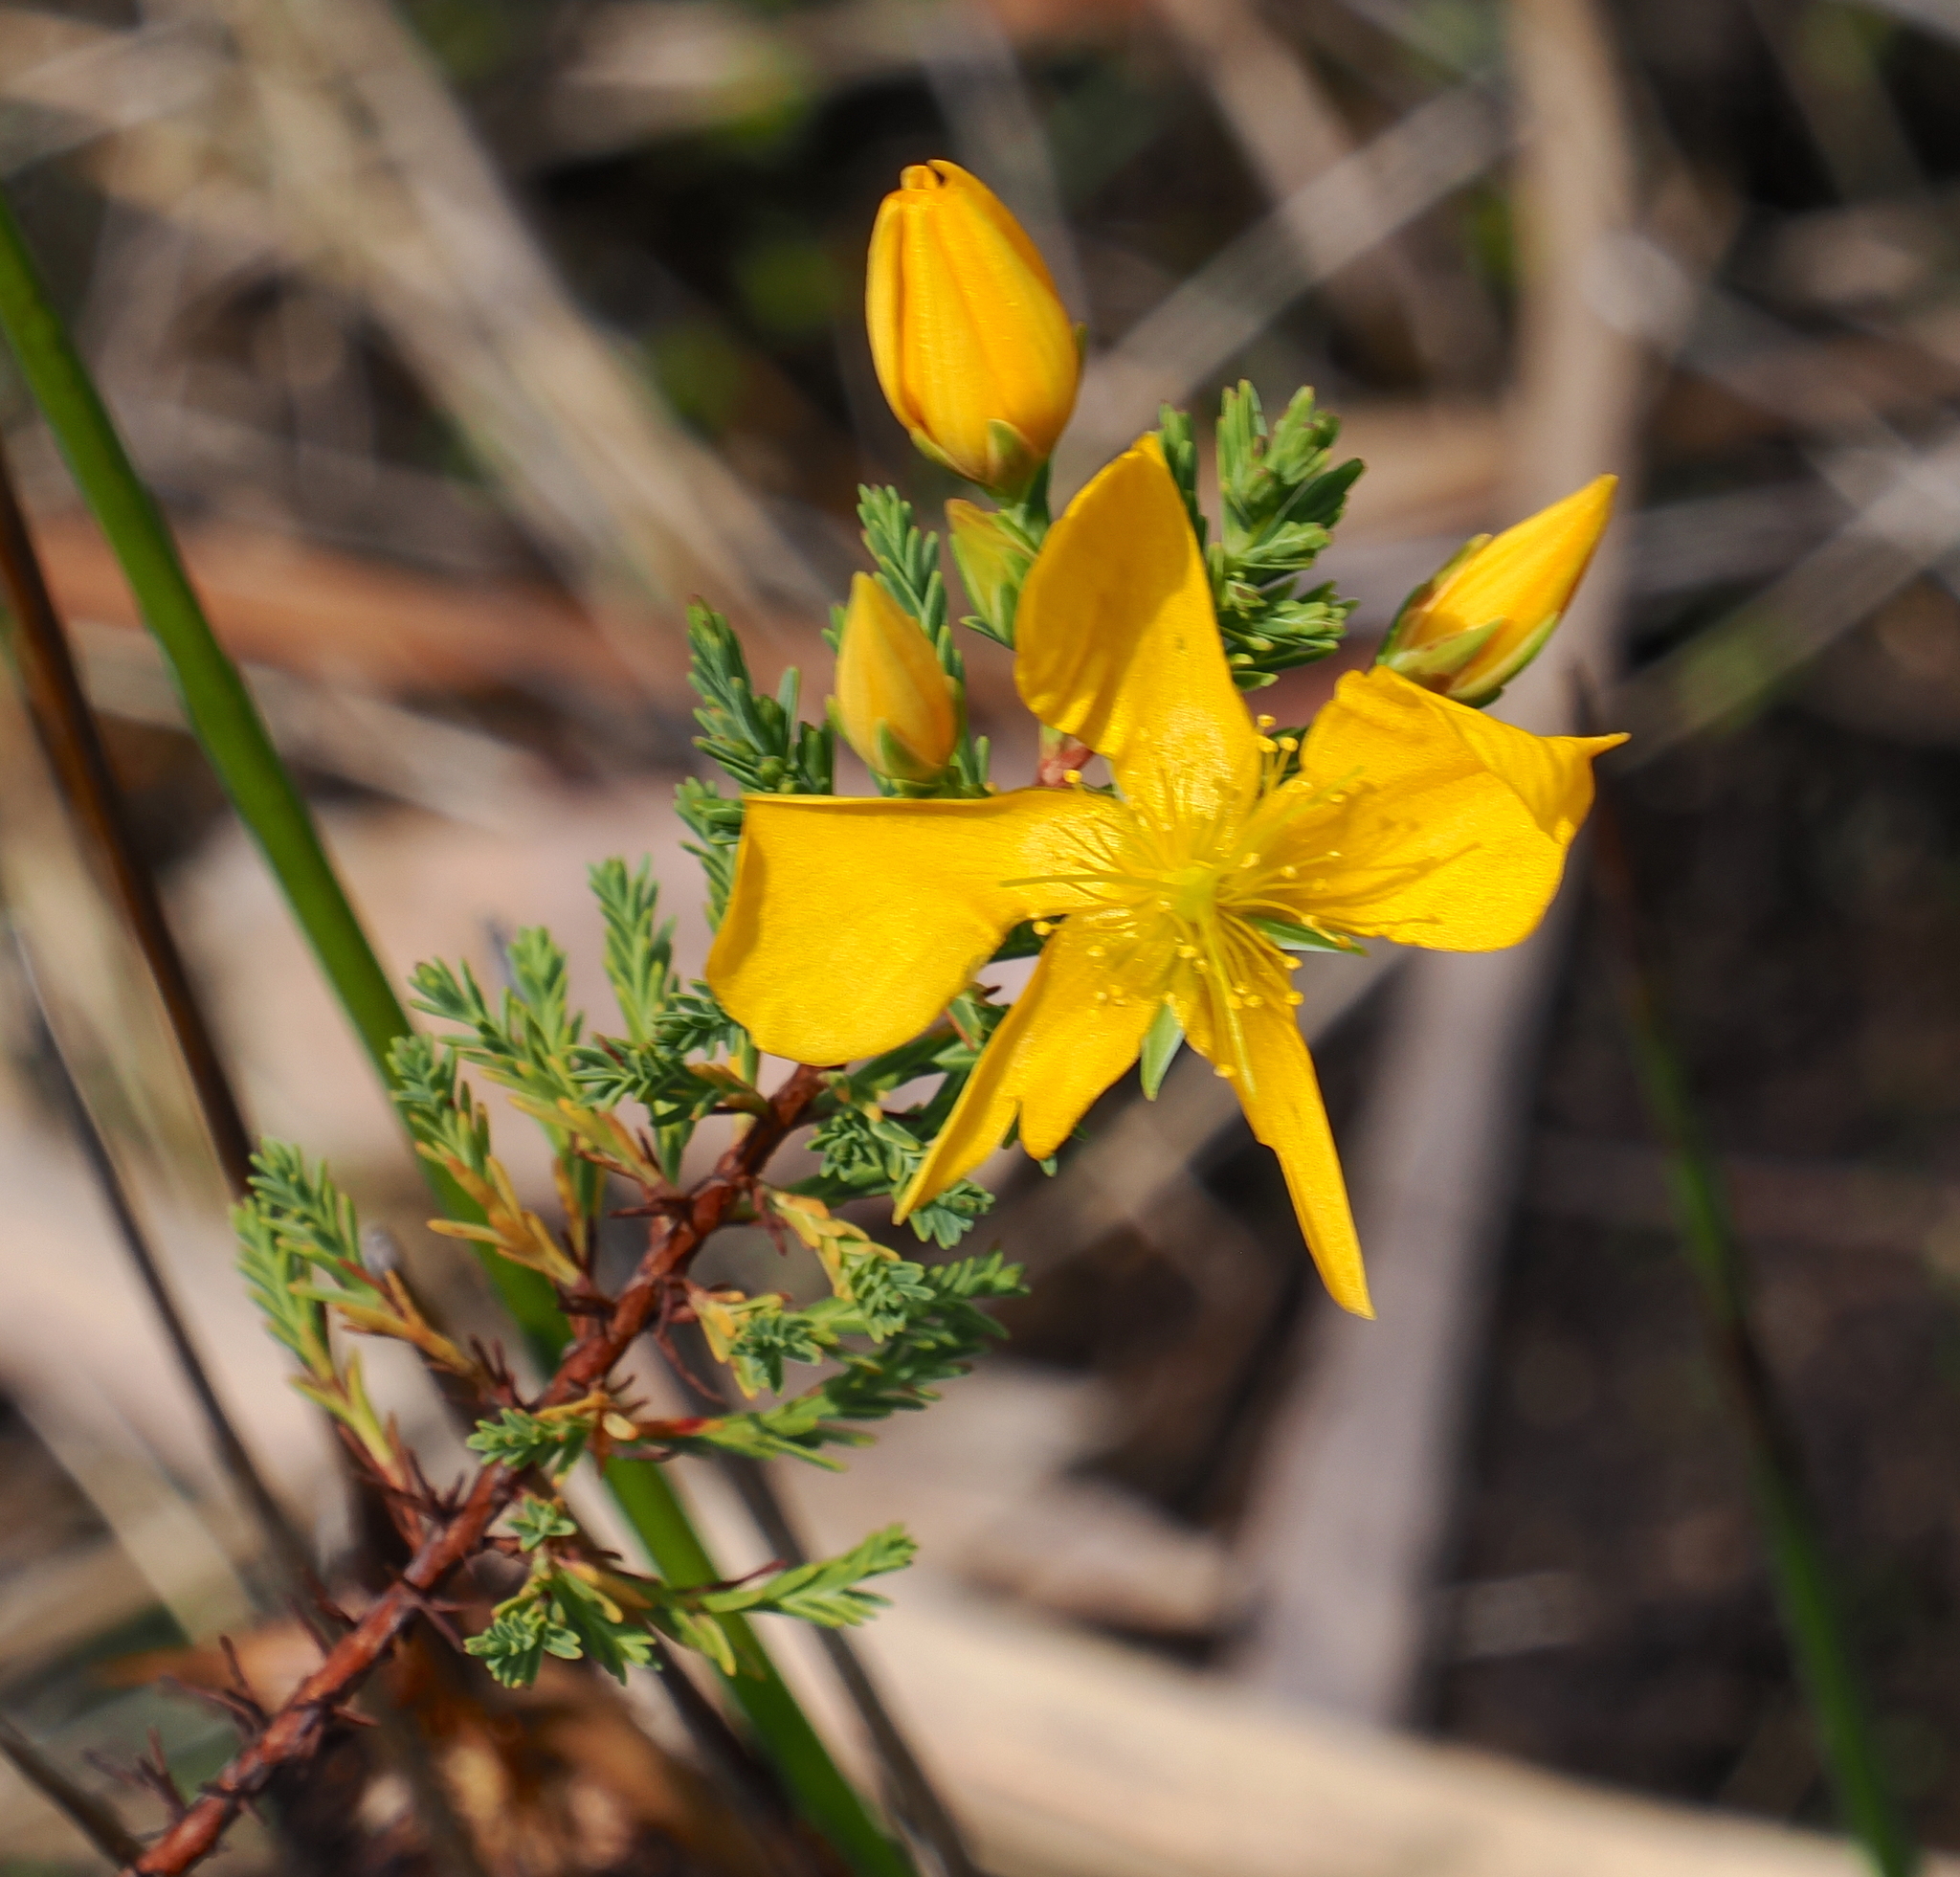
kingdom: Plantae
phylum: Tracheophyta
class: Magnoliopsida
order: Malpighiales
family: Hypericaceae
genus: Hypericum
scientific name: Hypericum laricifolium
